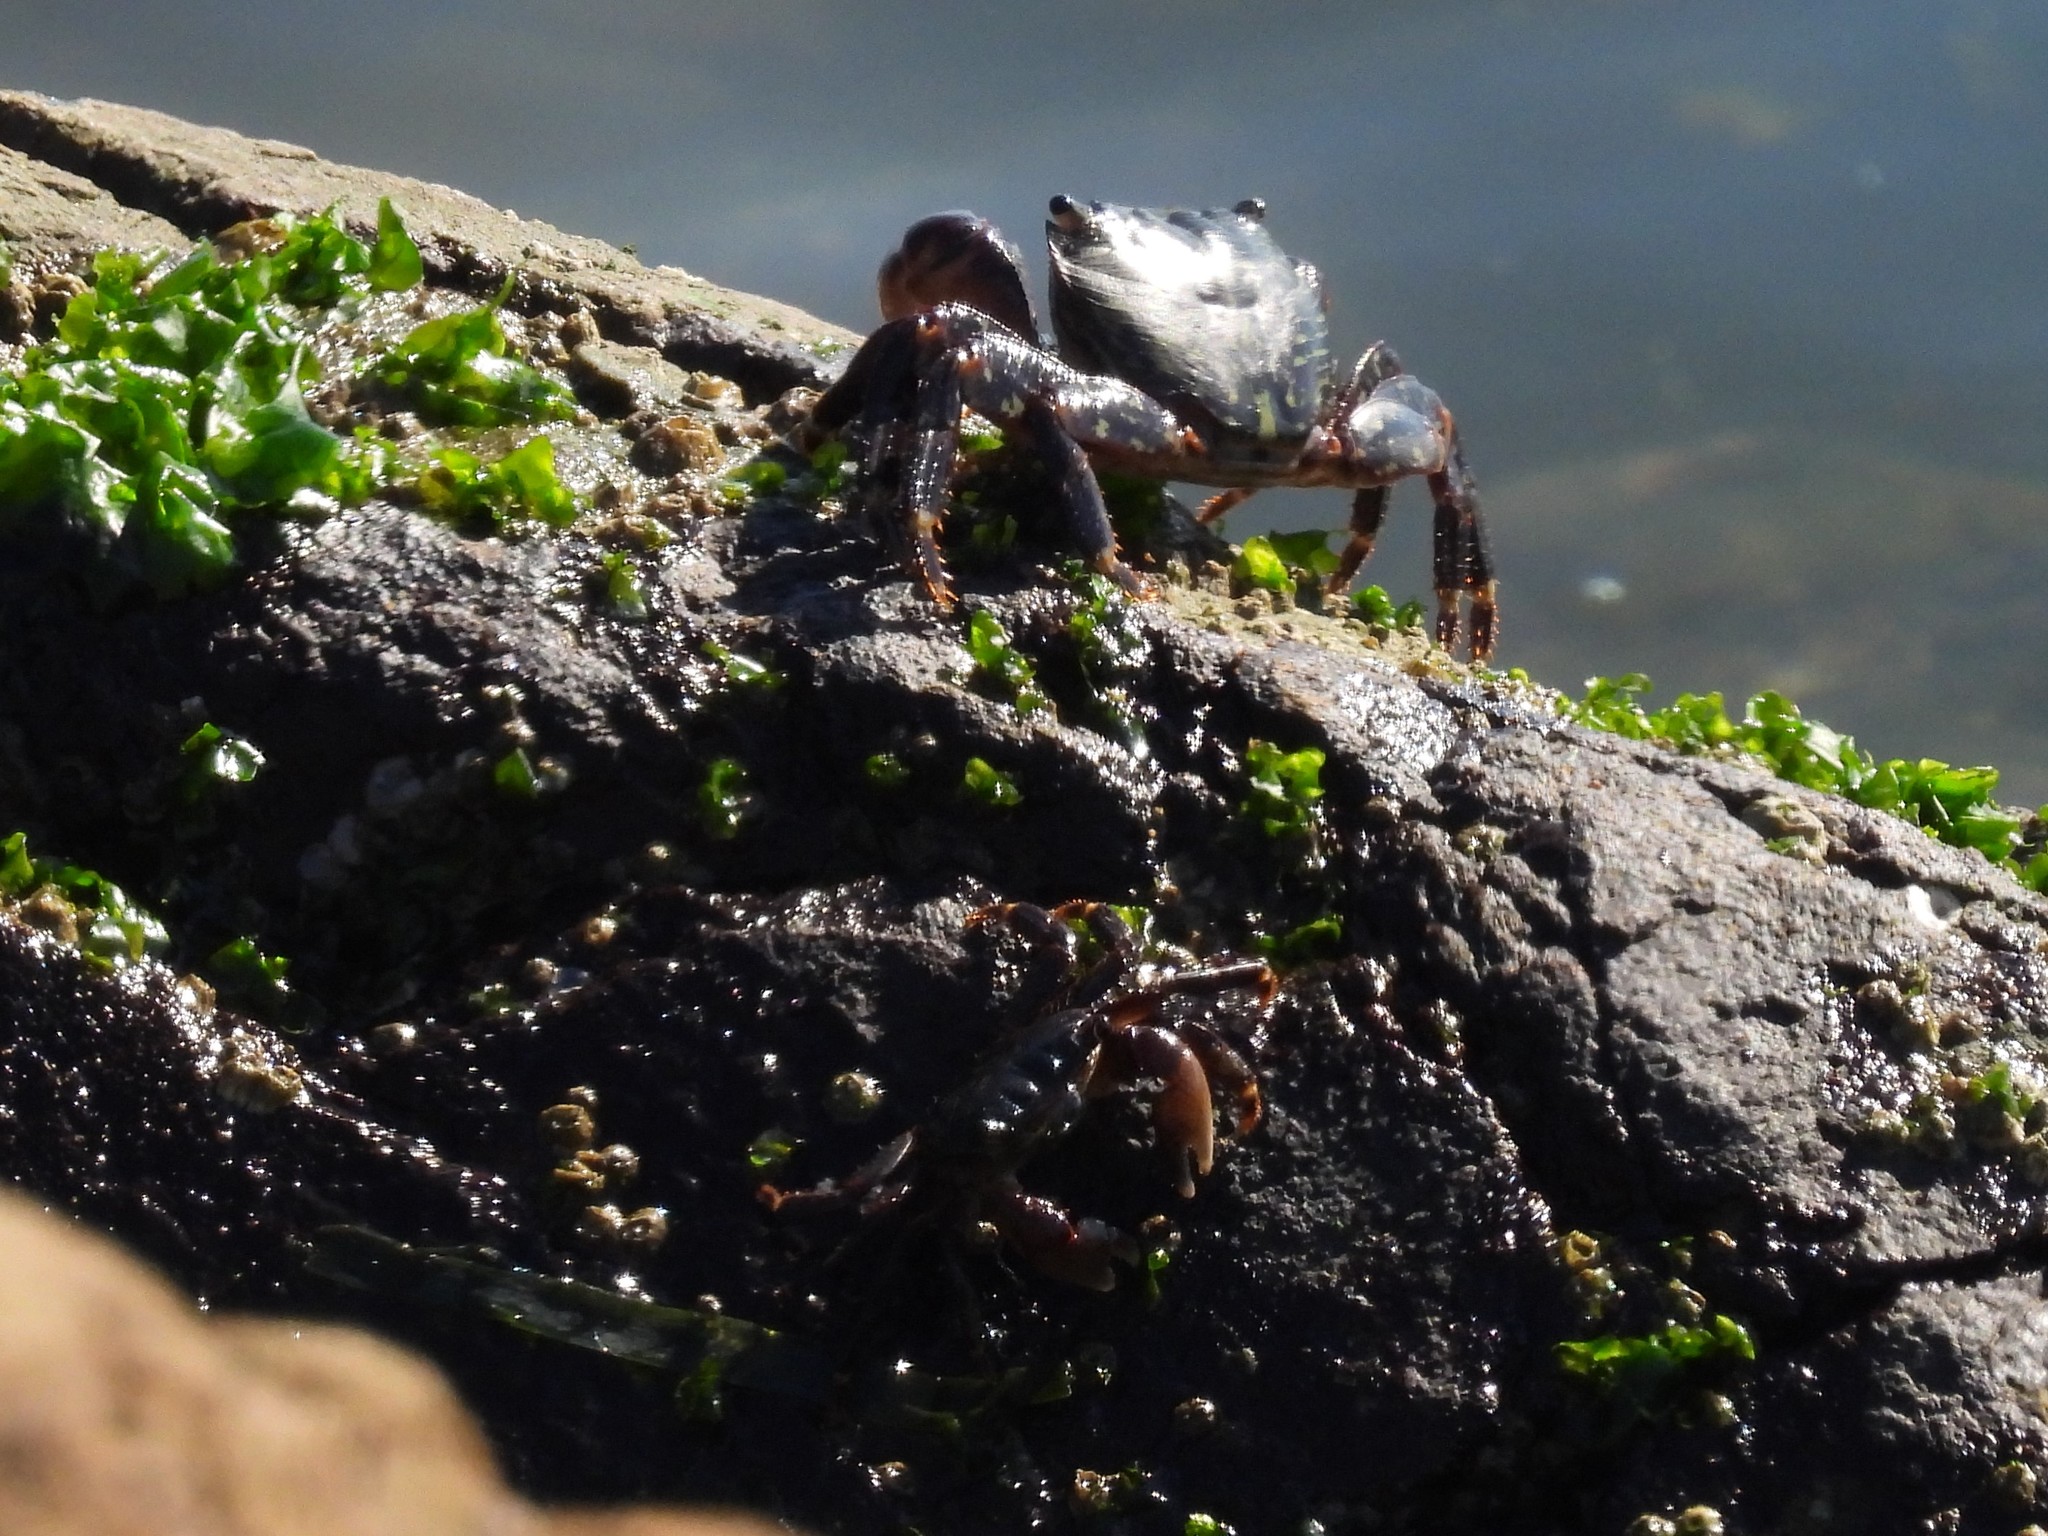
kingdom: Animalia
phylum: Arthropoda
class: Malacostraca
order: Decapoda
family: Grapsidae
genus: Pachygrapsus
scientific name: Pachygrapsus crassipes
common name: Striped shore crab
